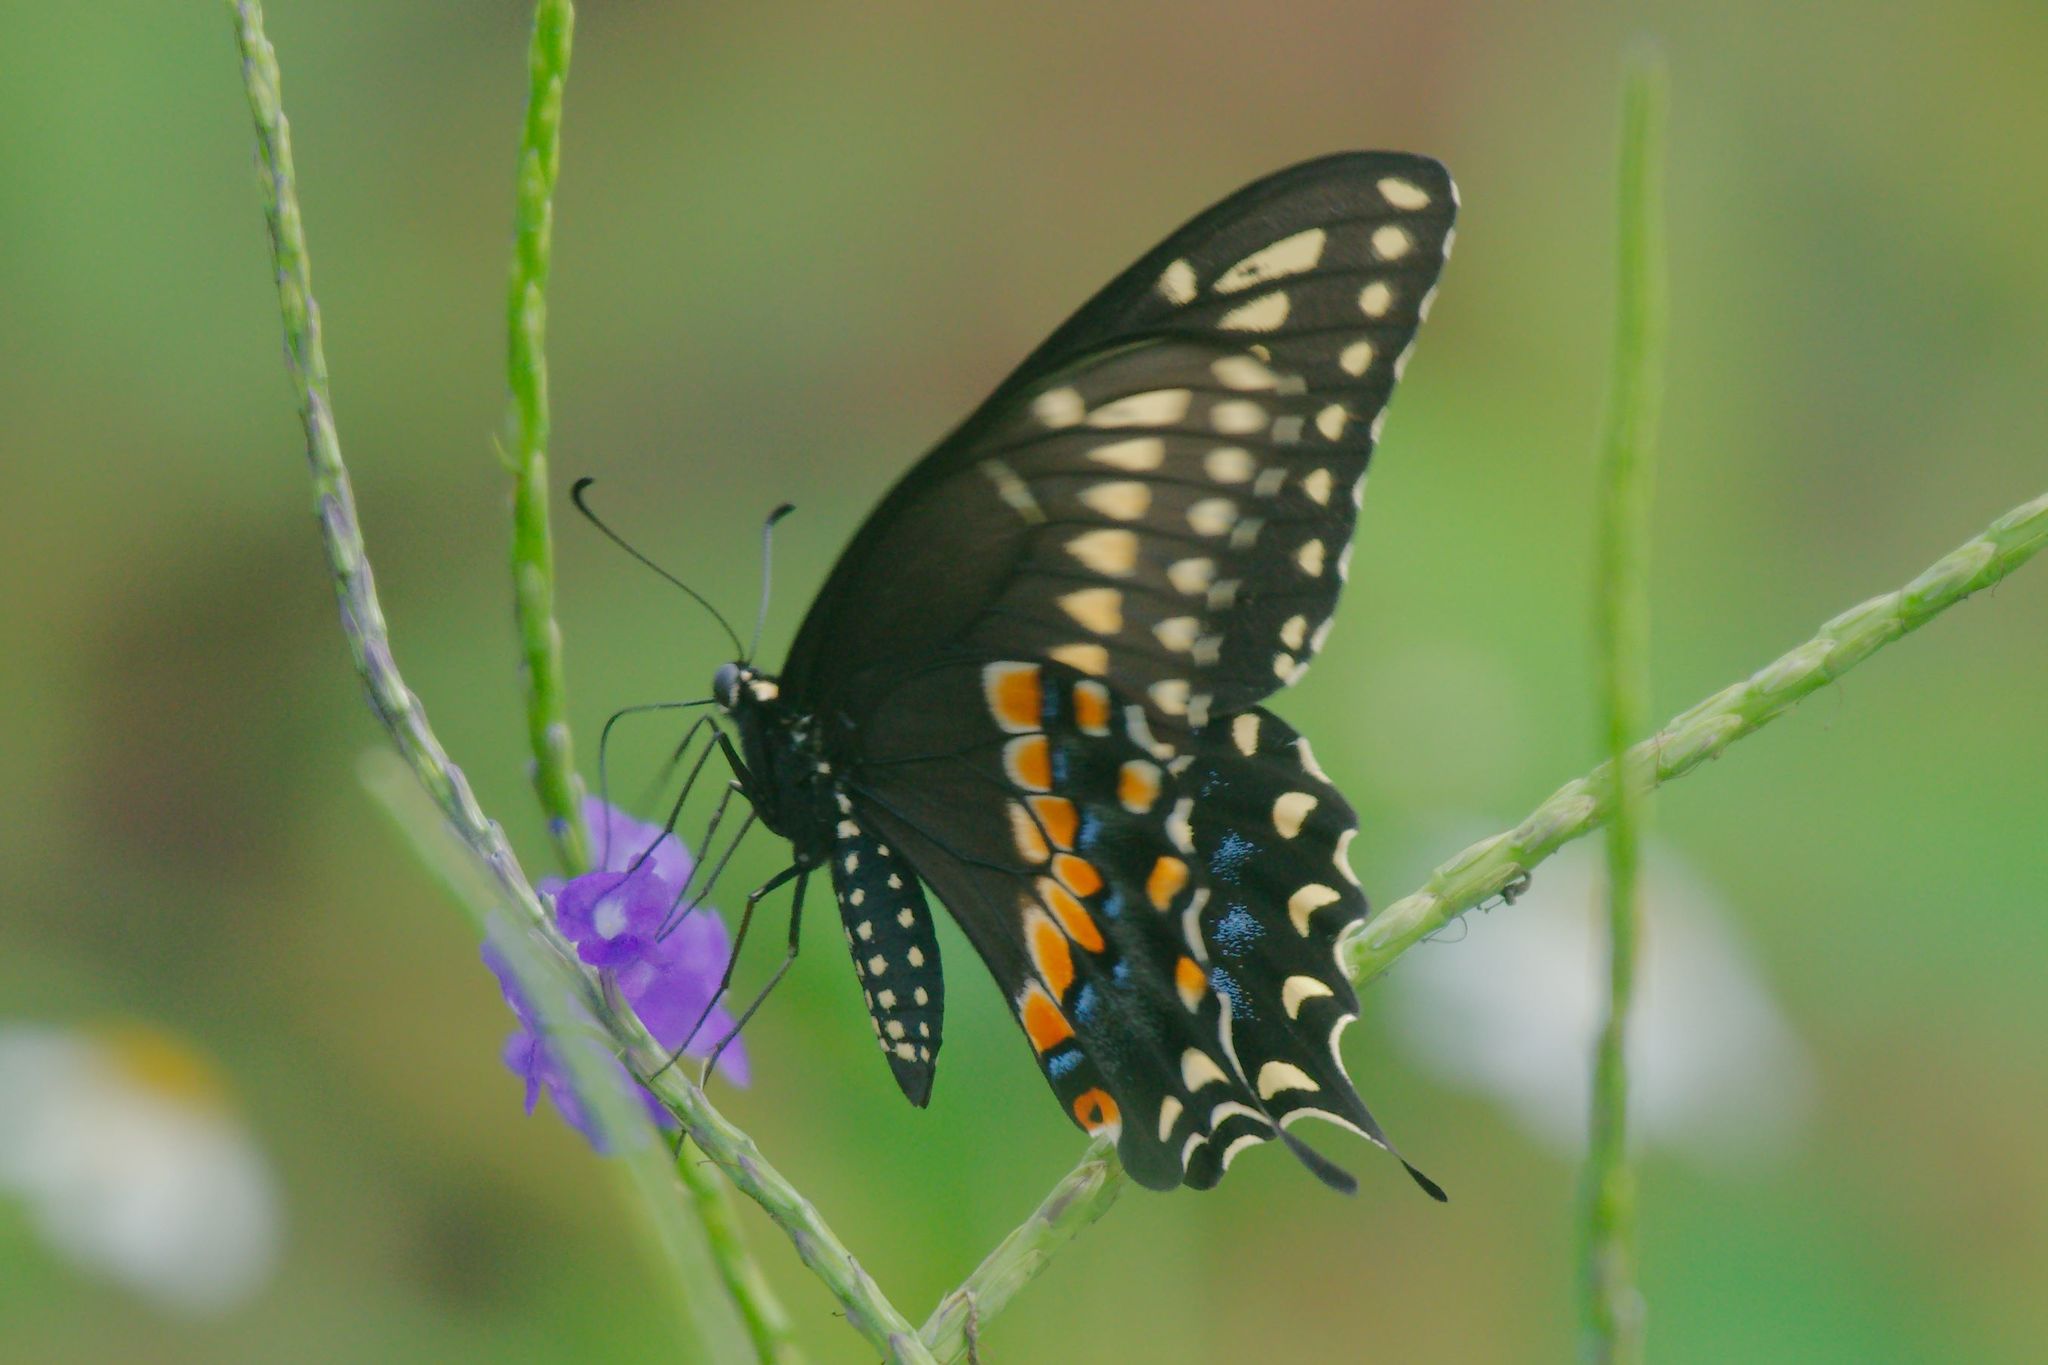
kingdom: Animalia
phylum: Arthropoda
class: Insecta
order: Lepidoptera
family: Papilionidae
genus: Papilio
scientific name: Papilio polyxenes
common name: Black swallowtail
